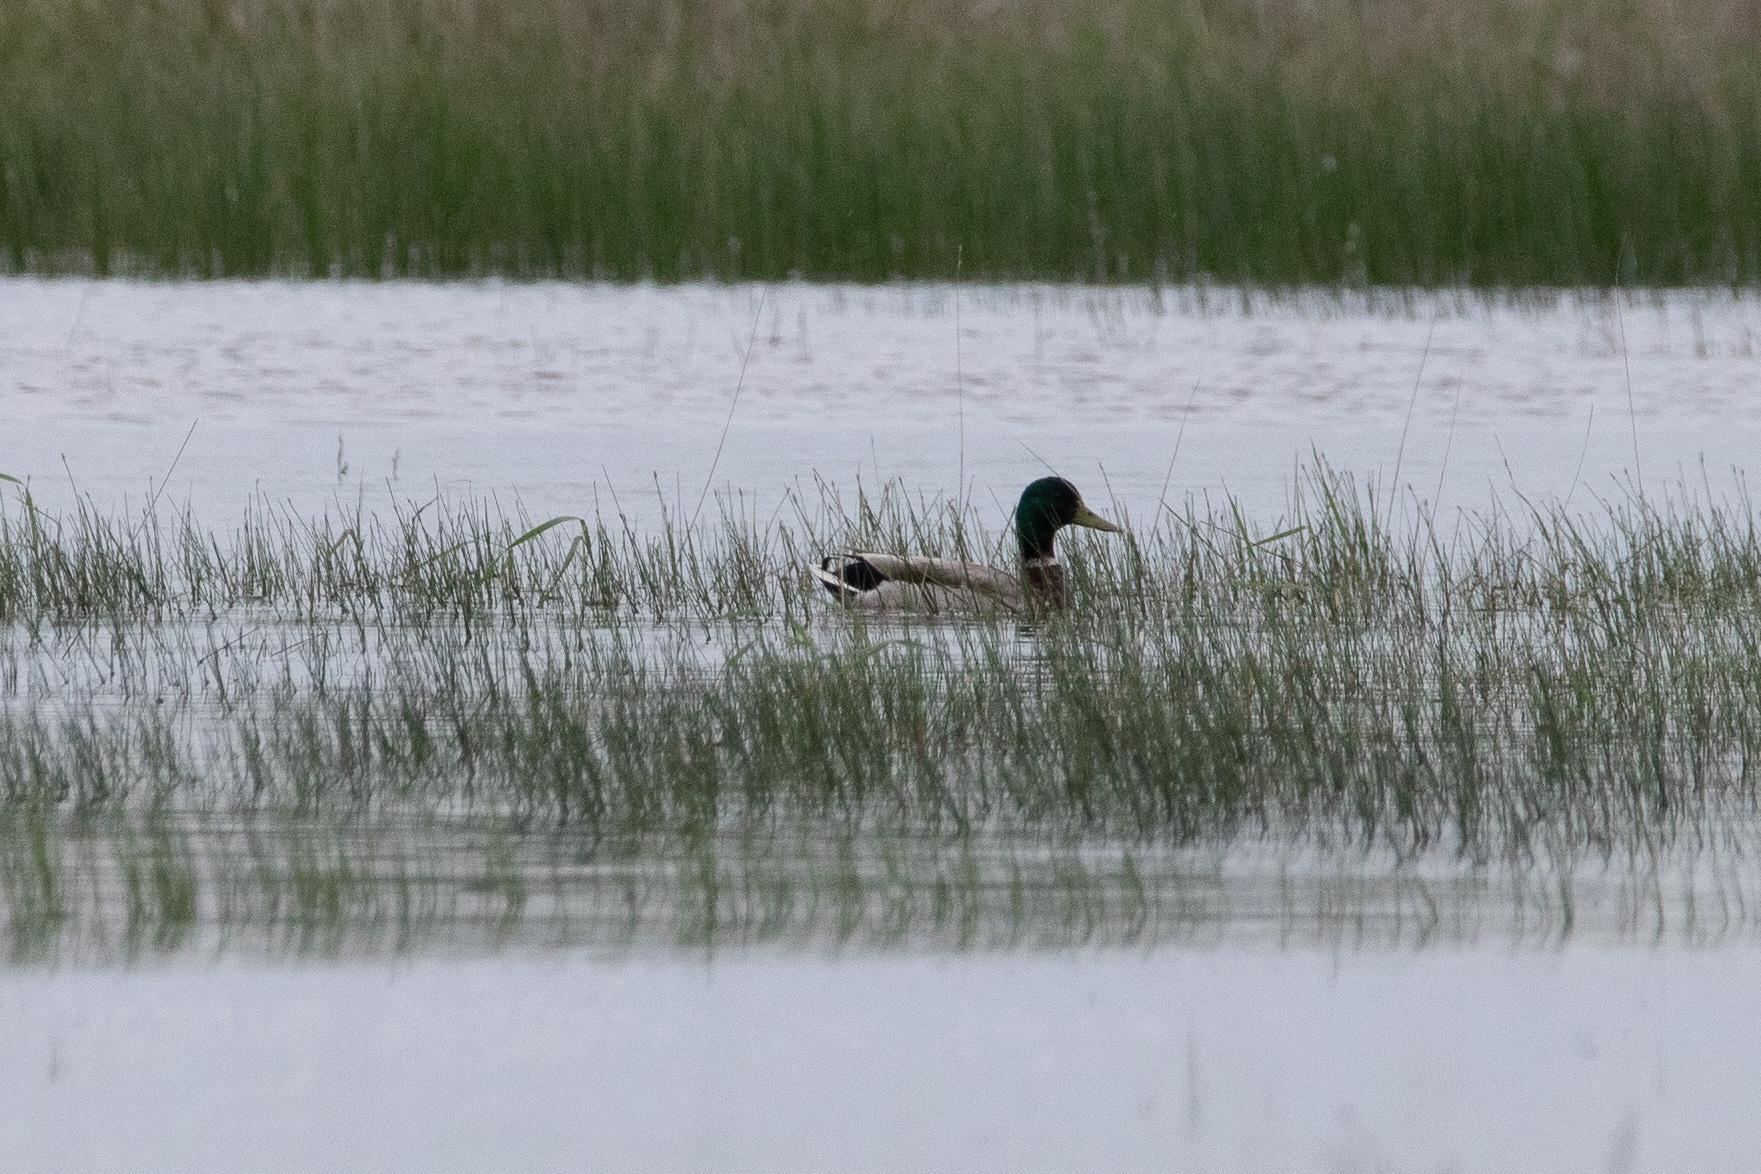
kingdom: Animalia
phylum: Chordata
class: Aves
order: Anseriformes
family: Anatidae
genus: Anas
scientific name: Anas platyrhynchos
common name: Mallard
